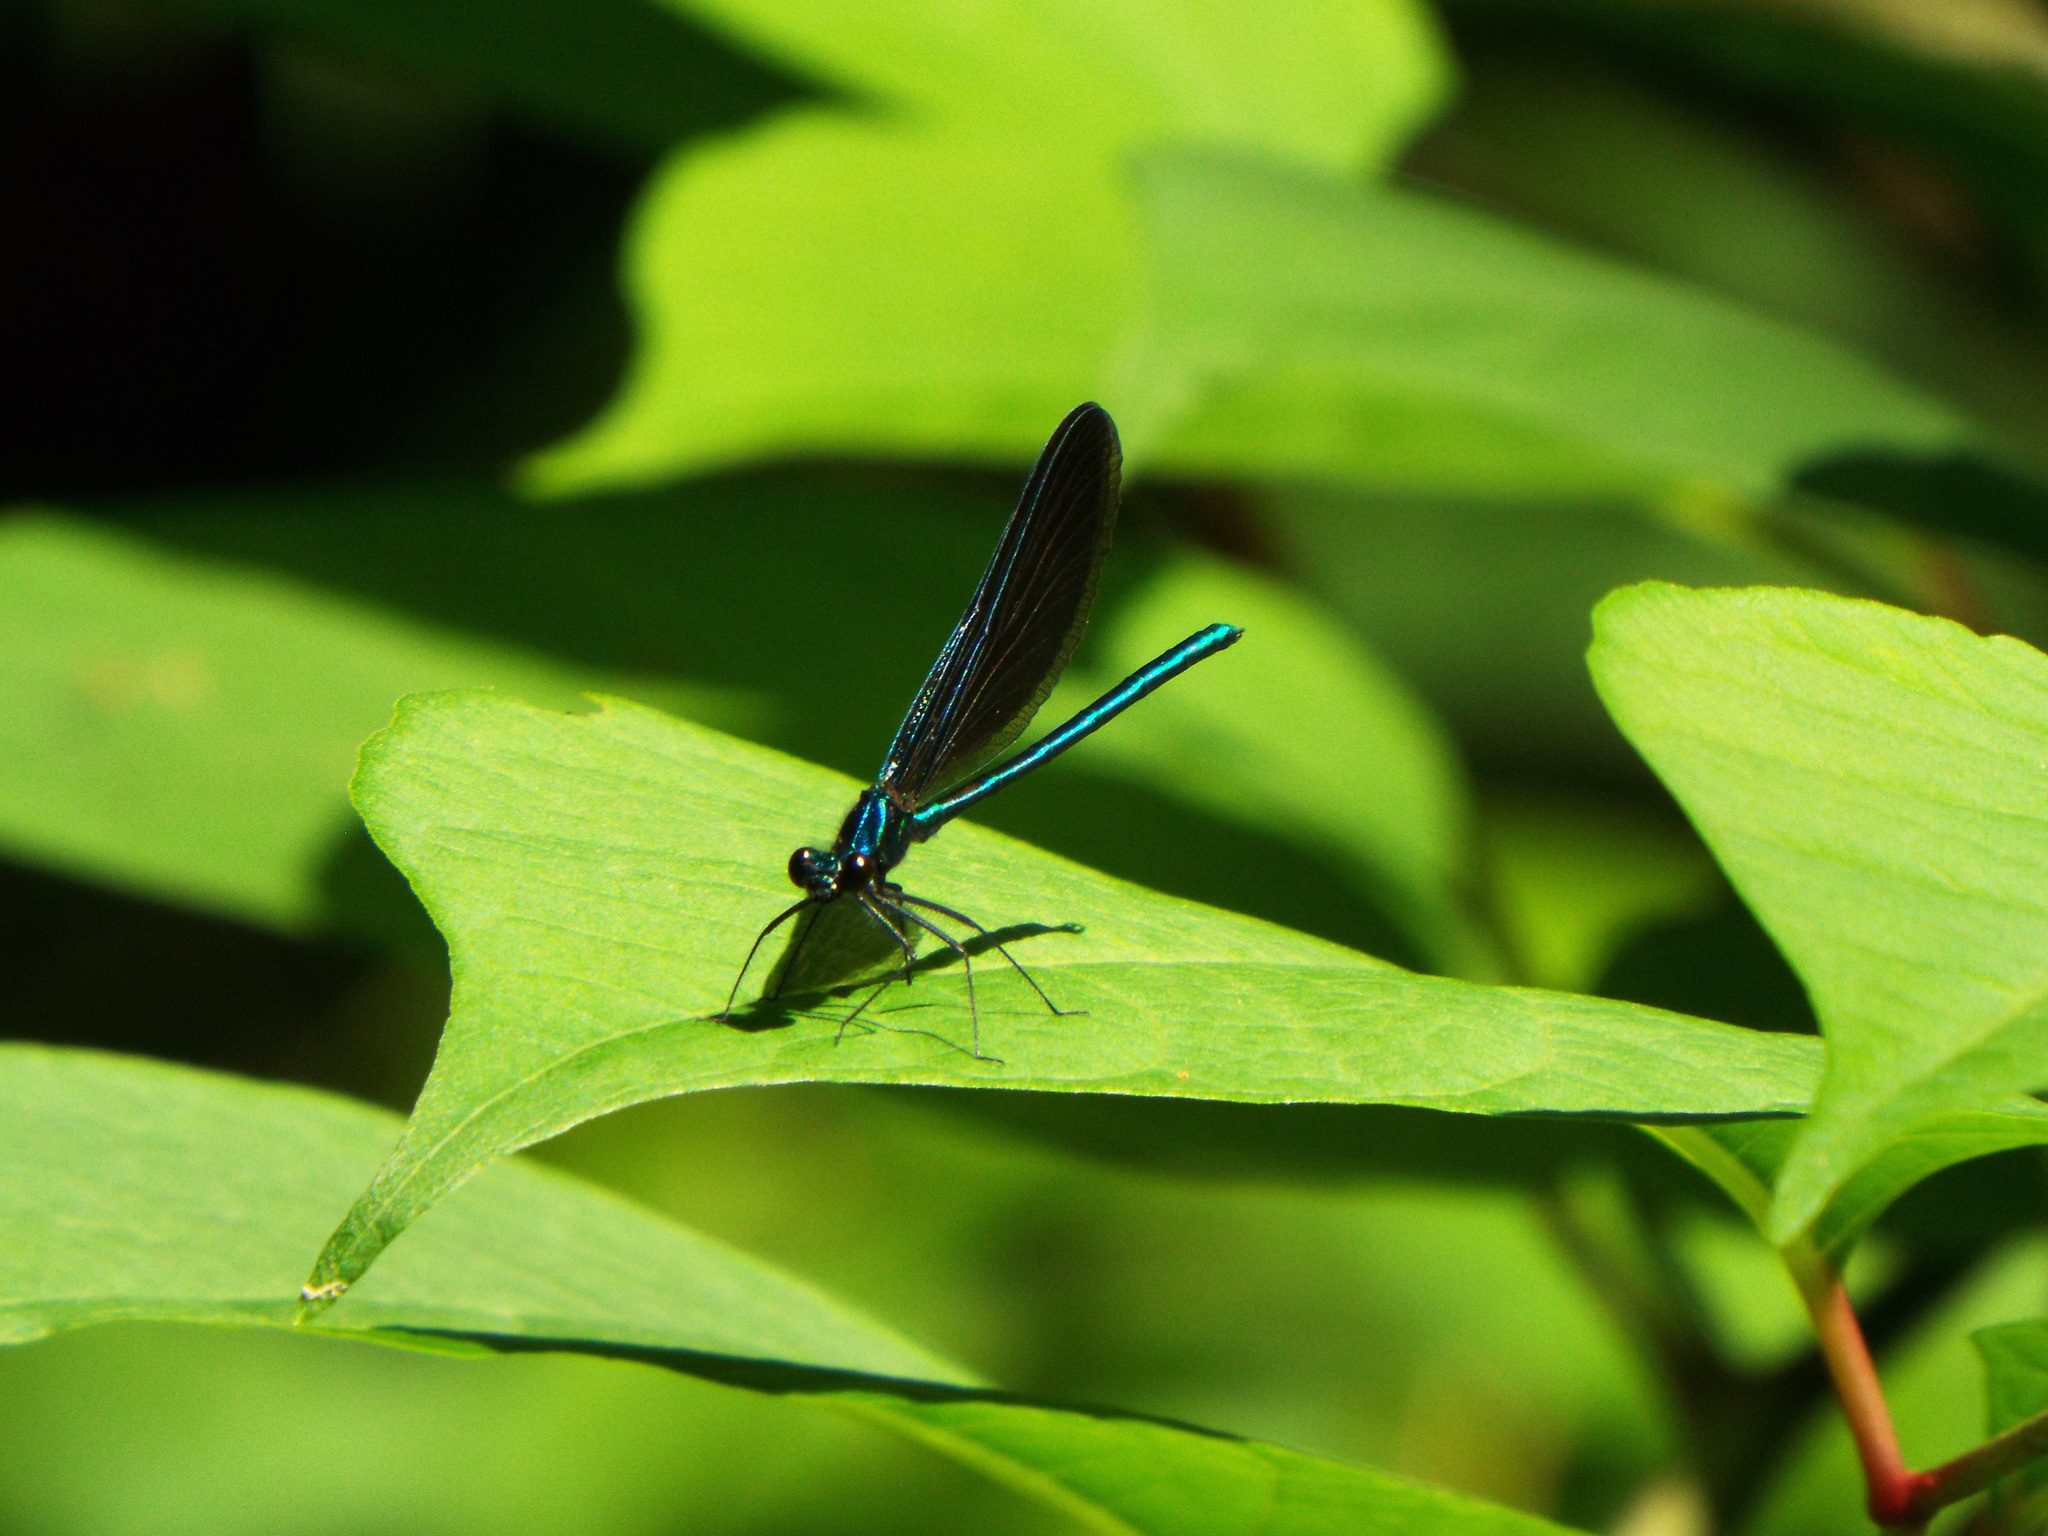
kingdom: Animalia
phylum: Arthropoda
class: Insecta
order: Odonata
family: Calopterygidae
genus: Calopteryx
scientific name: Calopteryx maculata
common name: Ebony jewelwing
